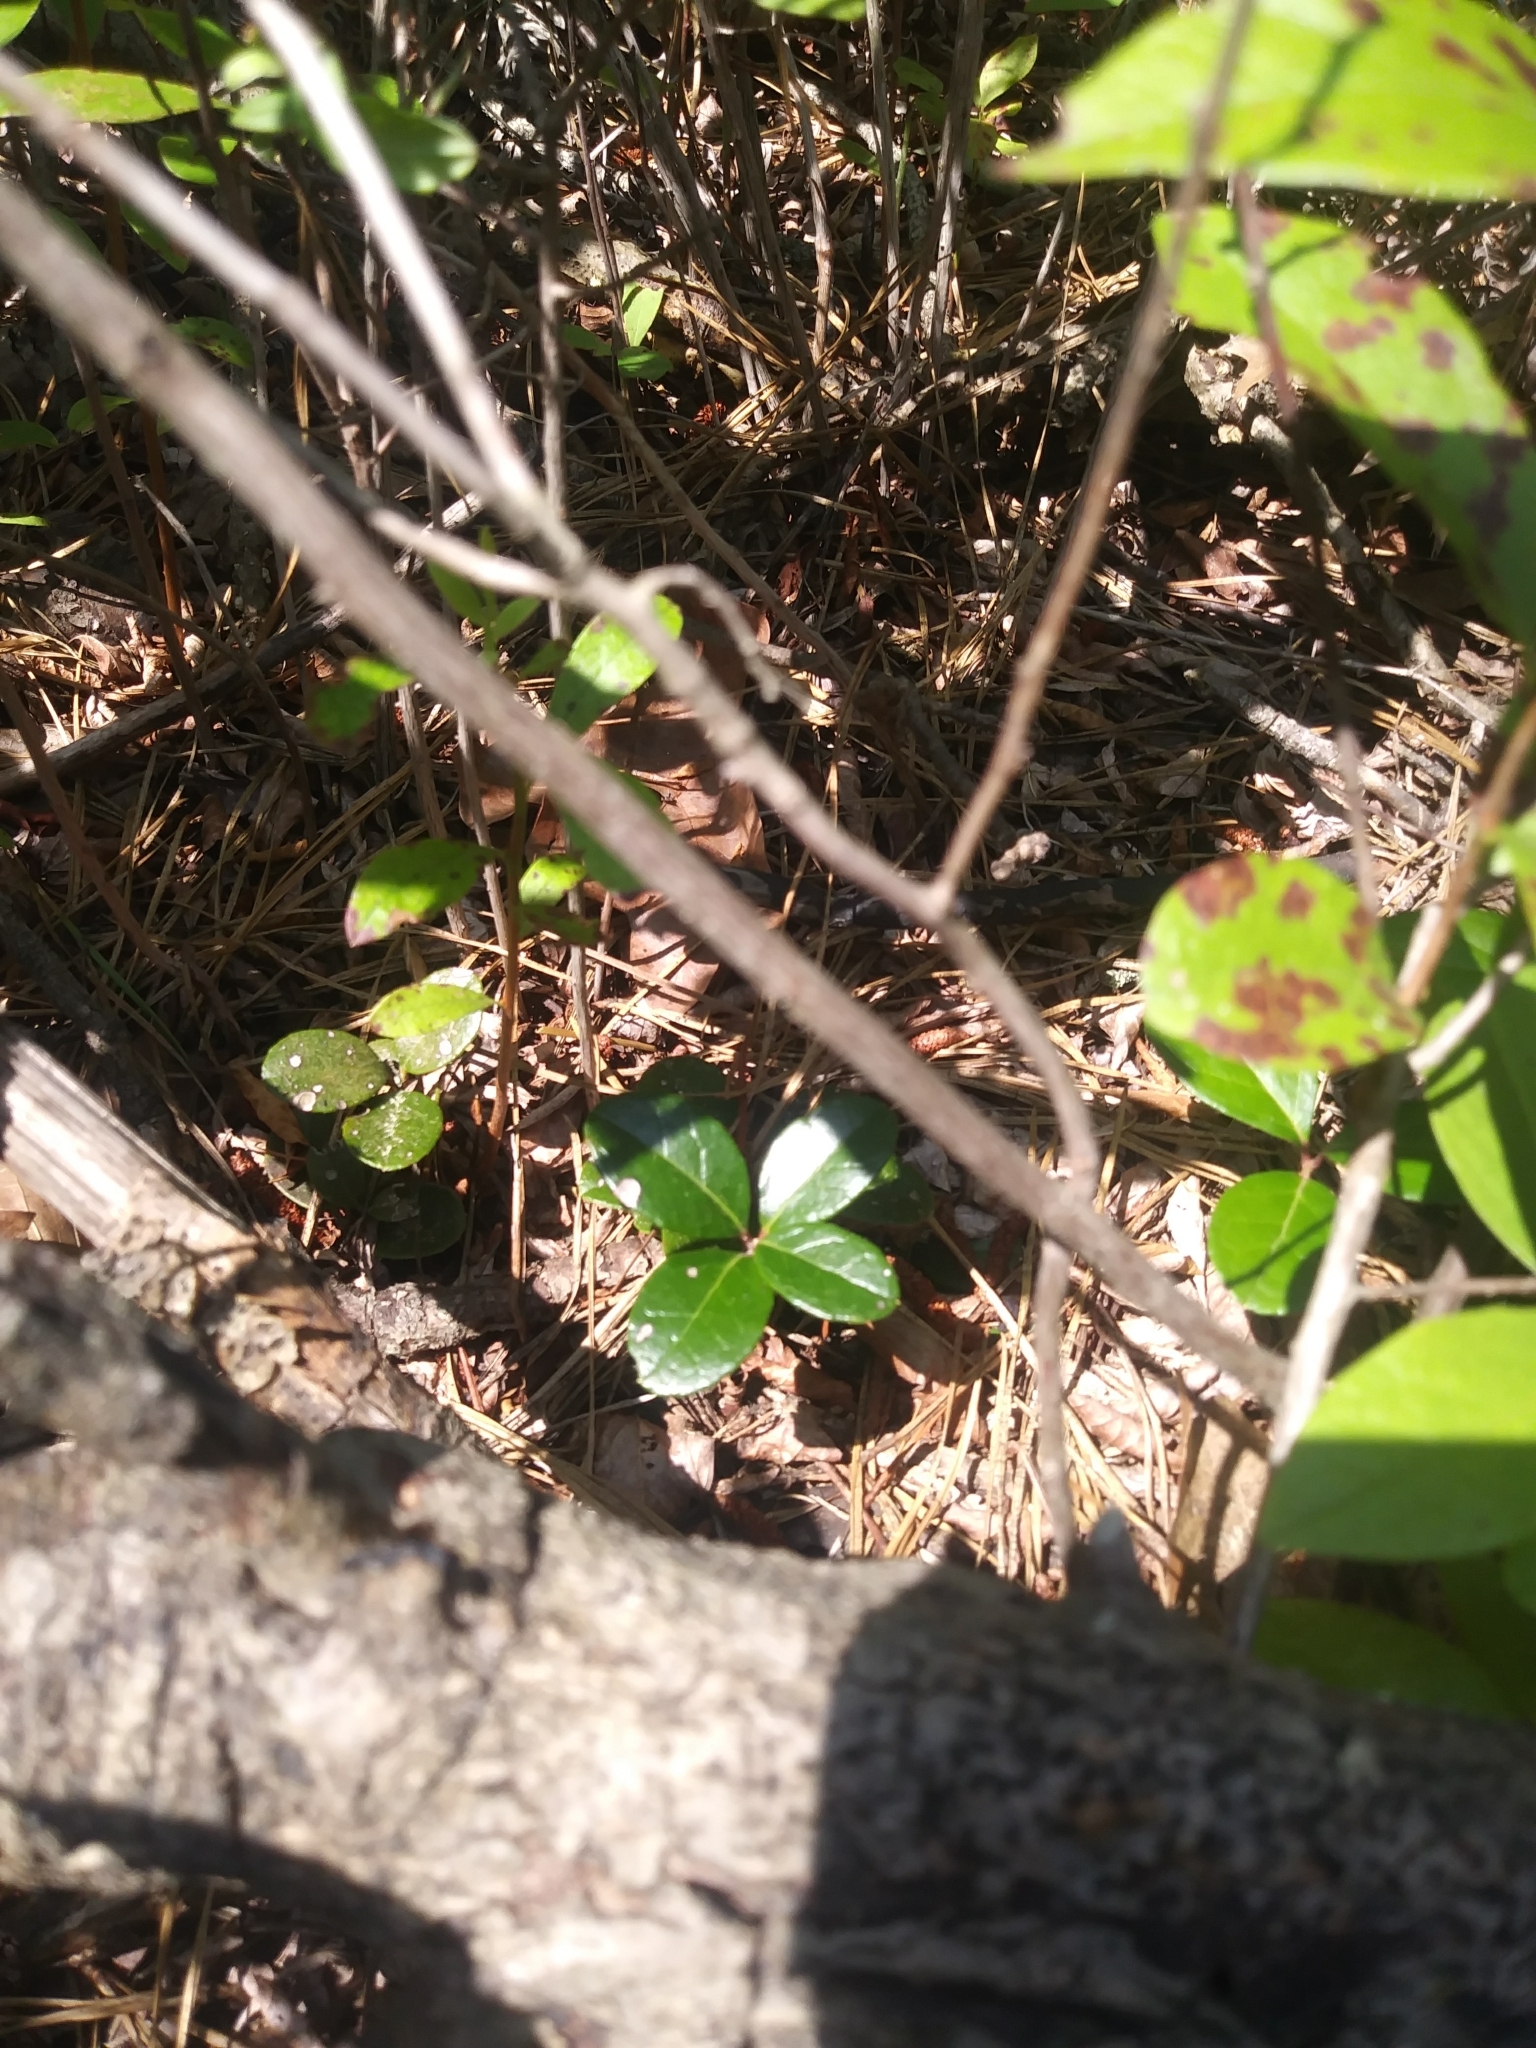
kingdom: Plantae
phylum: Tracheophyta
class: Magnoliopsida
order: Ericales
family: Ericaceae
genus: Gaultheria
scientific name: Gaultheria procumbens
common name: Checkerberry
